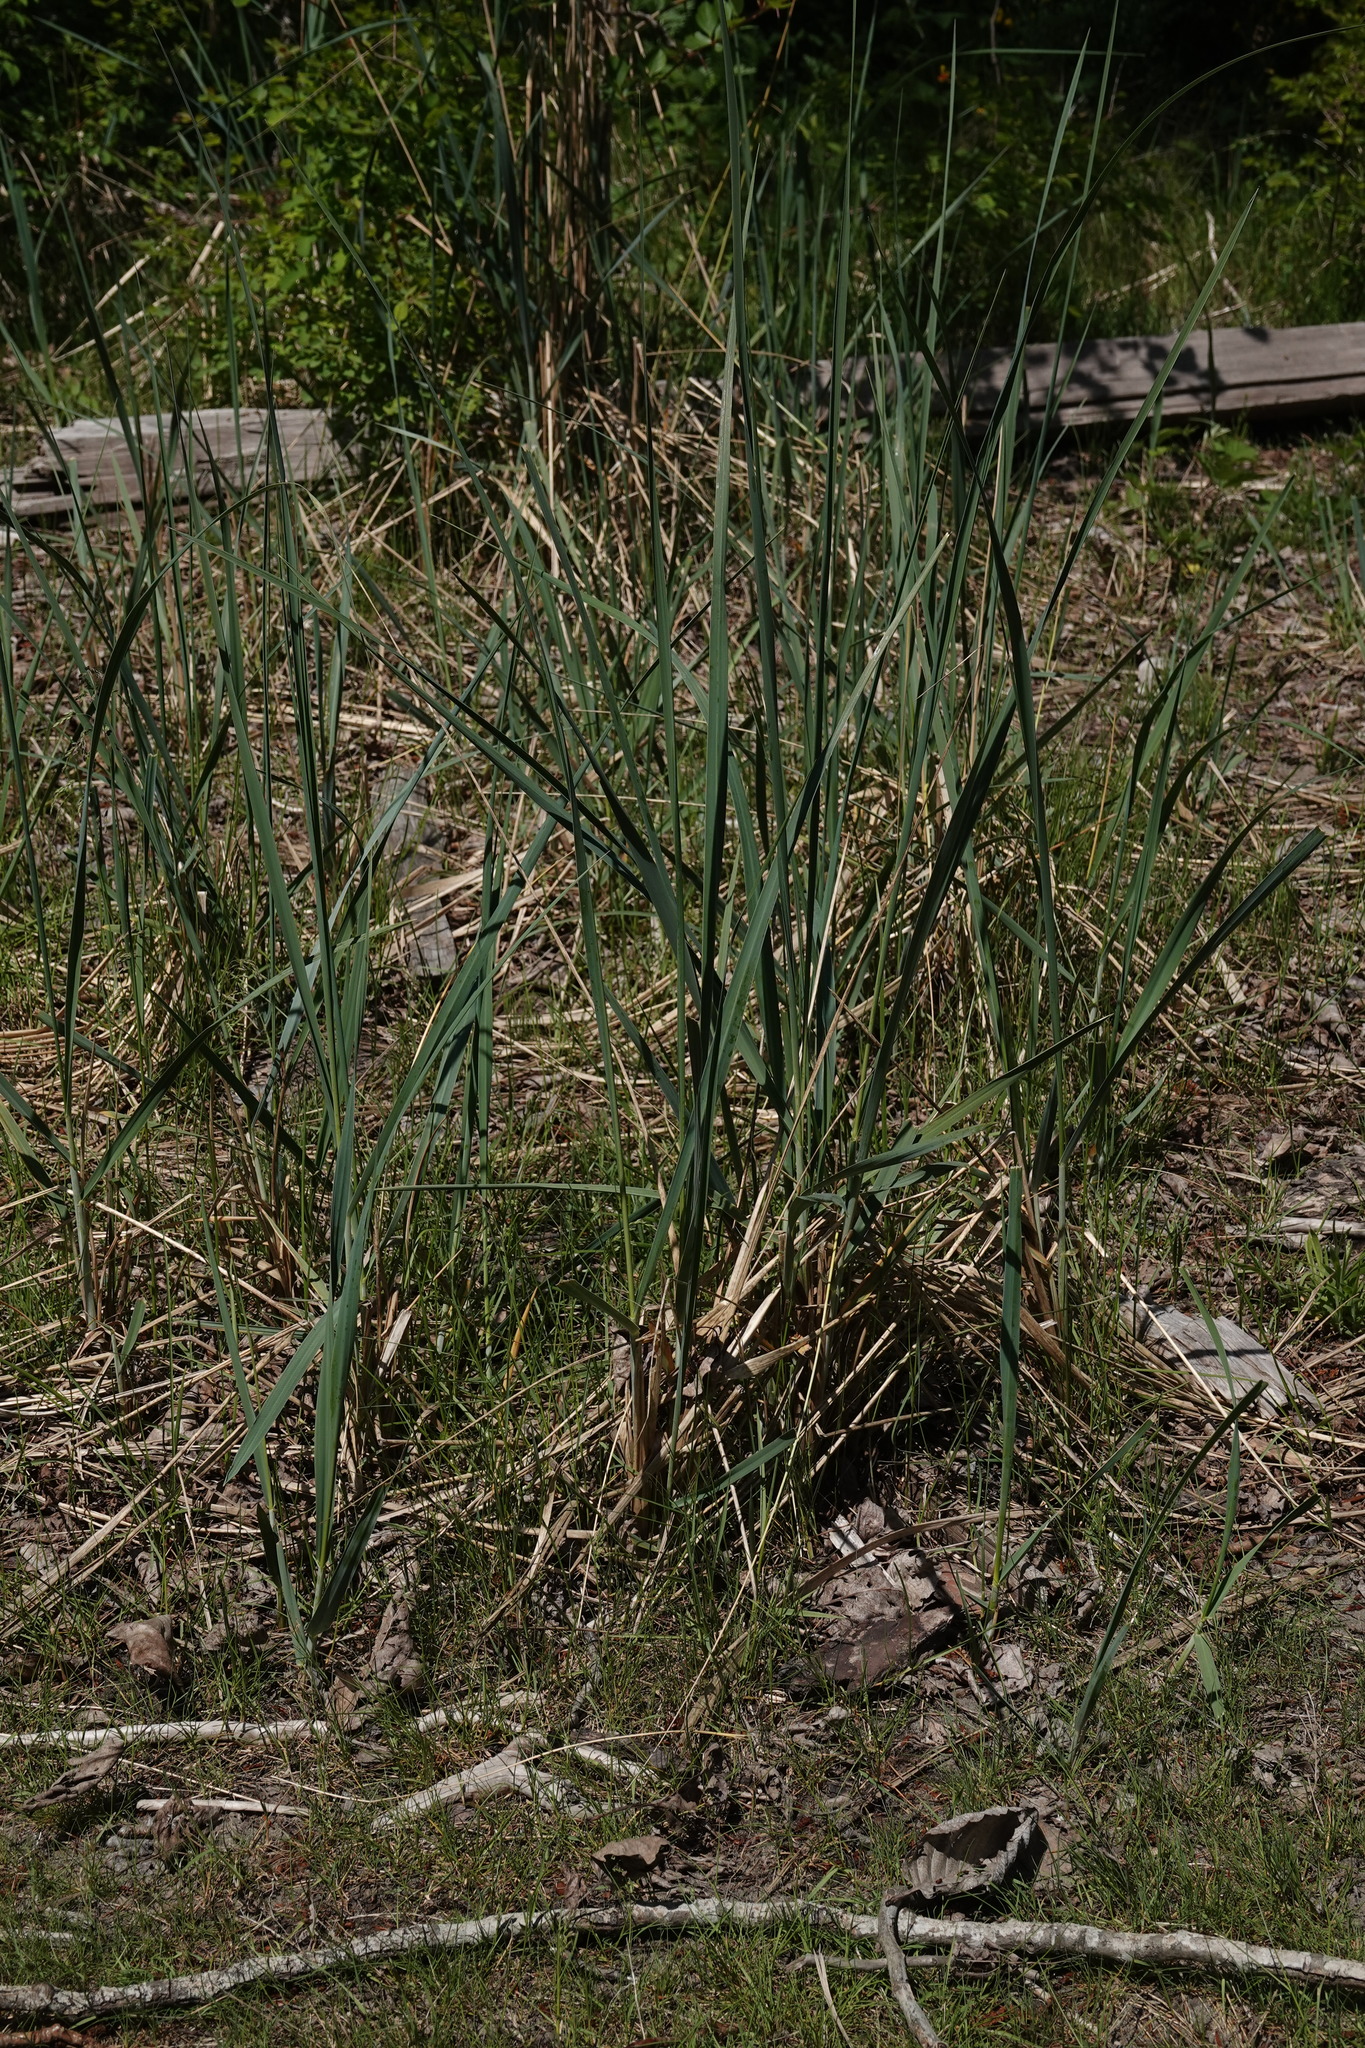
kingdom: Plantae
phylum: Tracheophyta
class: Liliopsida
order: Poales
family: Typhaceae
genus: Typha
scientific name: Typha angustifolia
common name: Lesser bulrush
